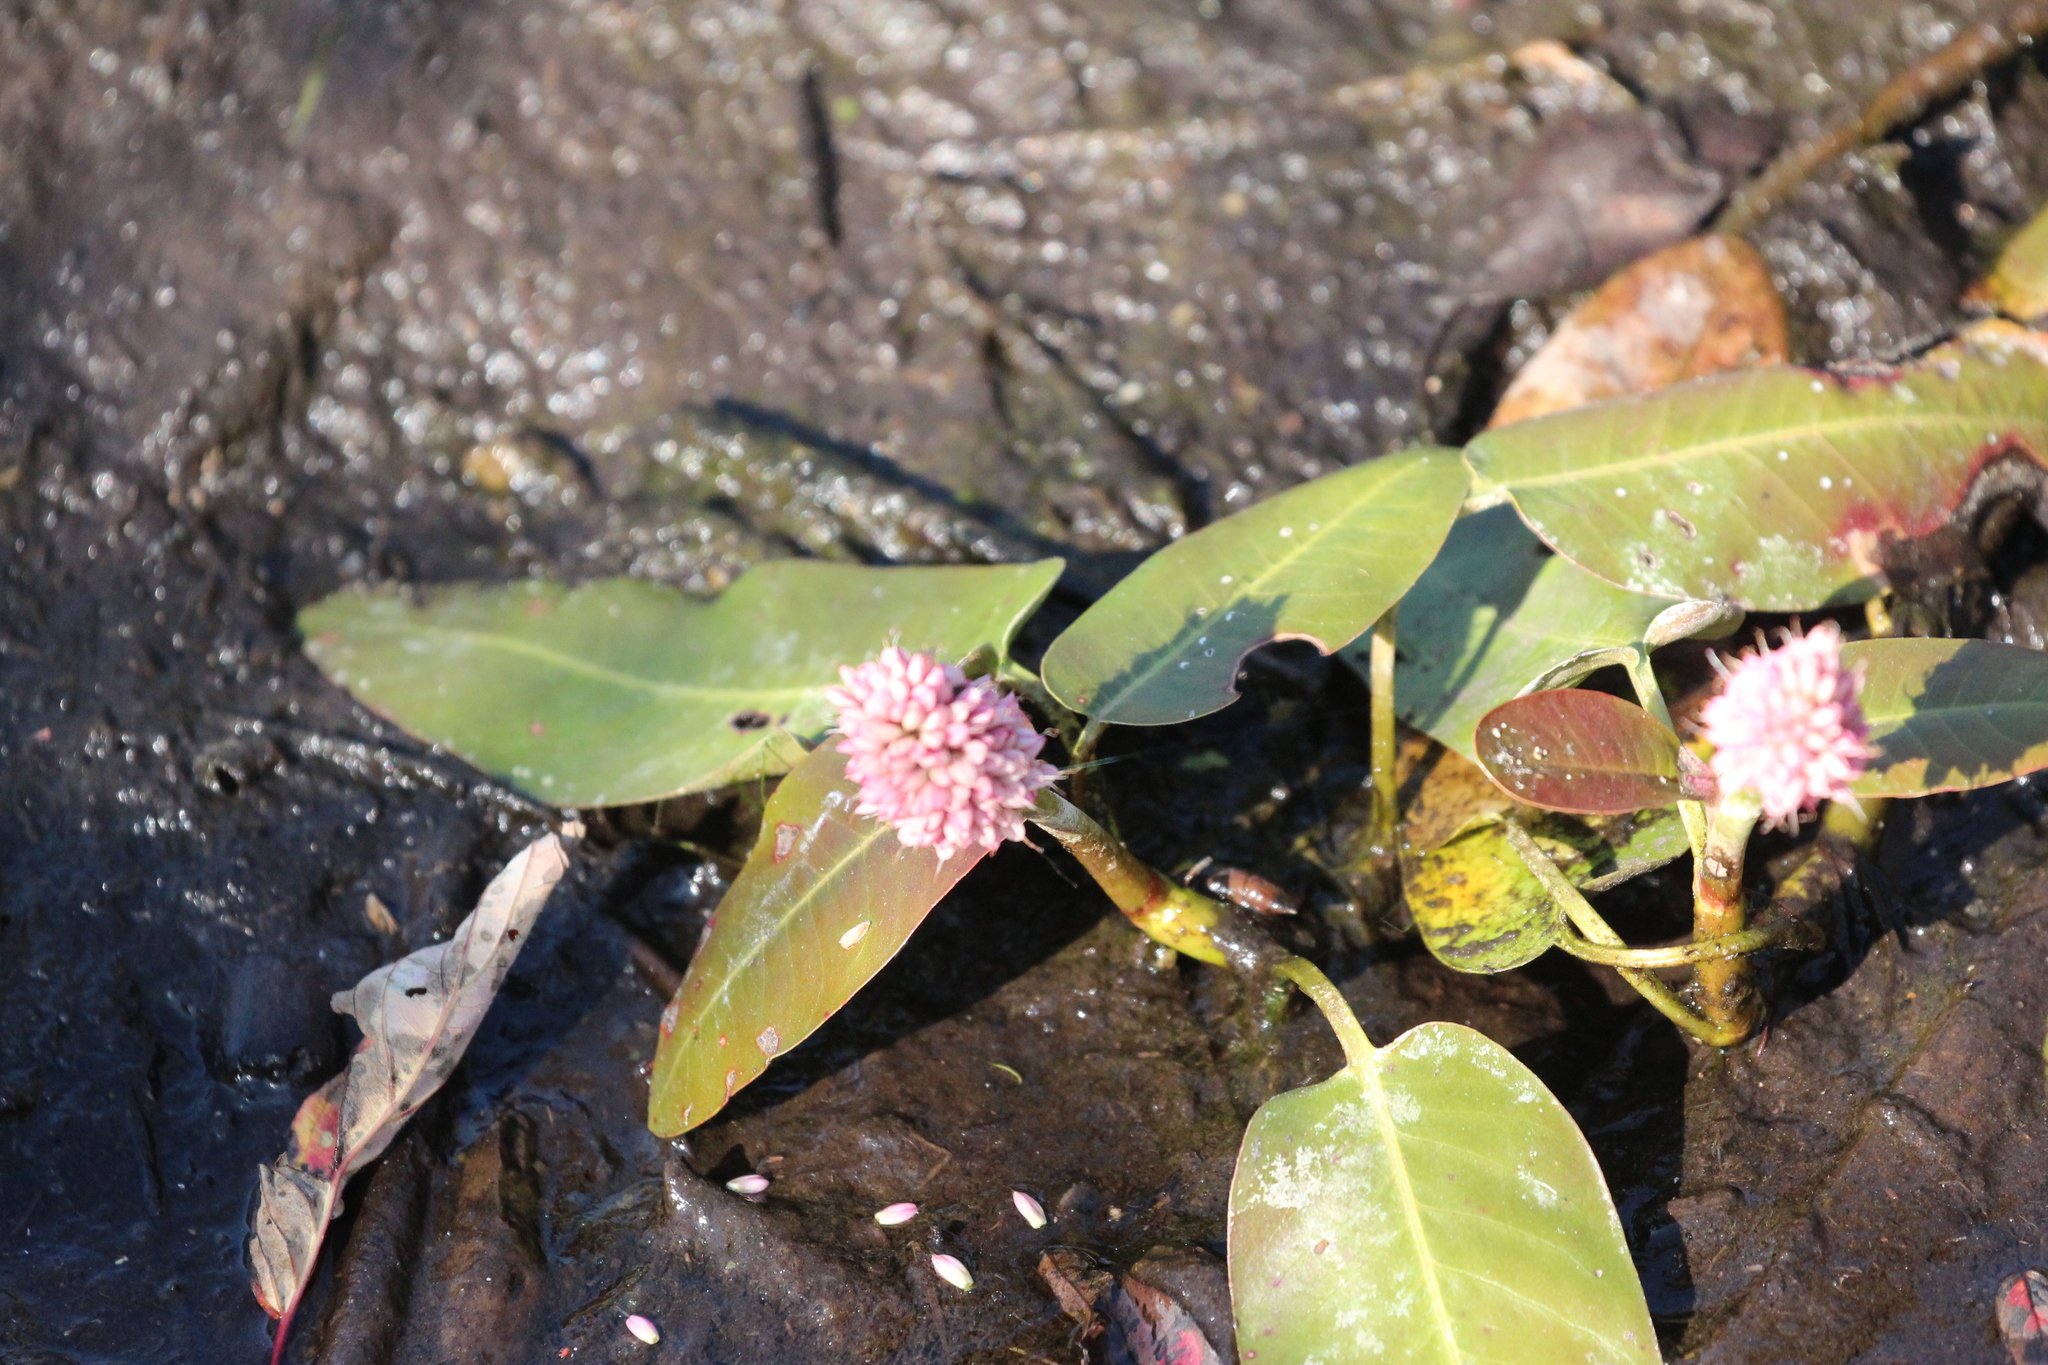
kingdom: Plantae
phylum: Tracheophyta
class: Magnoliopsida
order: Caryophyllales
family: Polygonaceae
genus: Persicaria
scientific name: Persicaria amphibia
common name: Amphibious bistort
